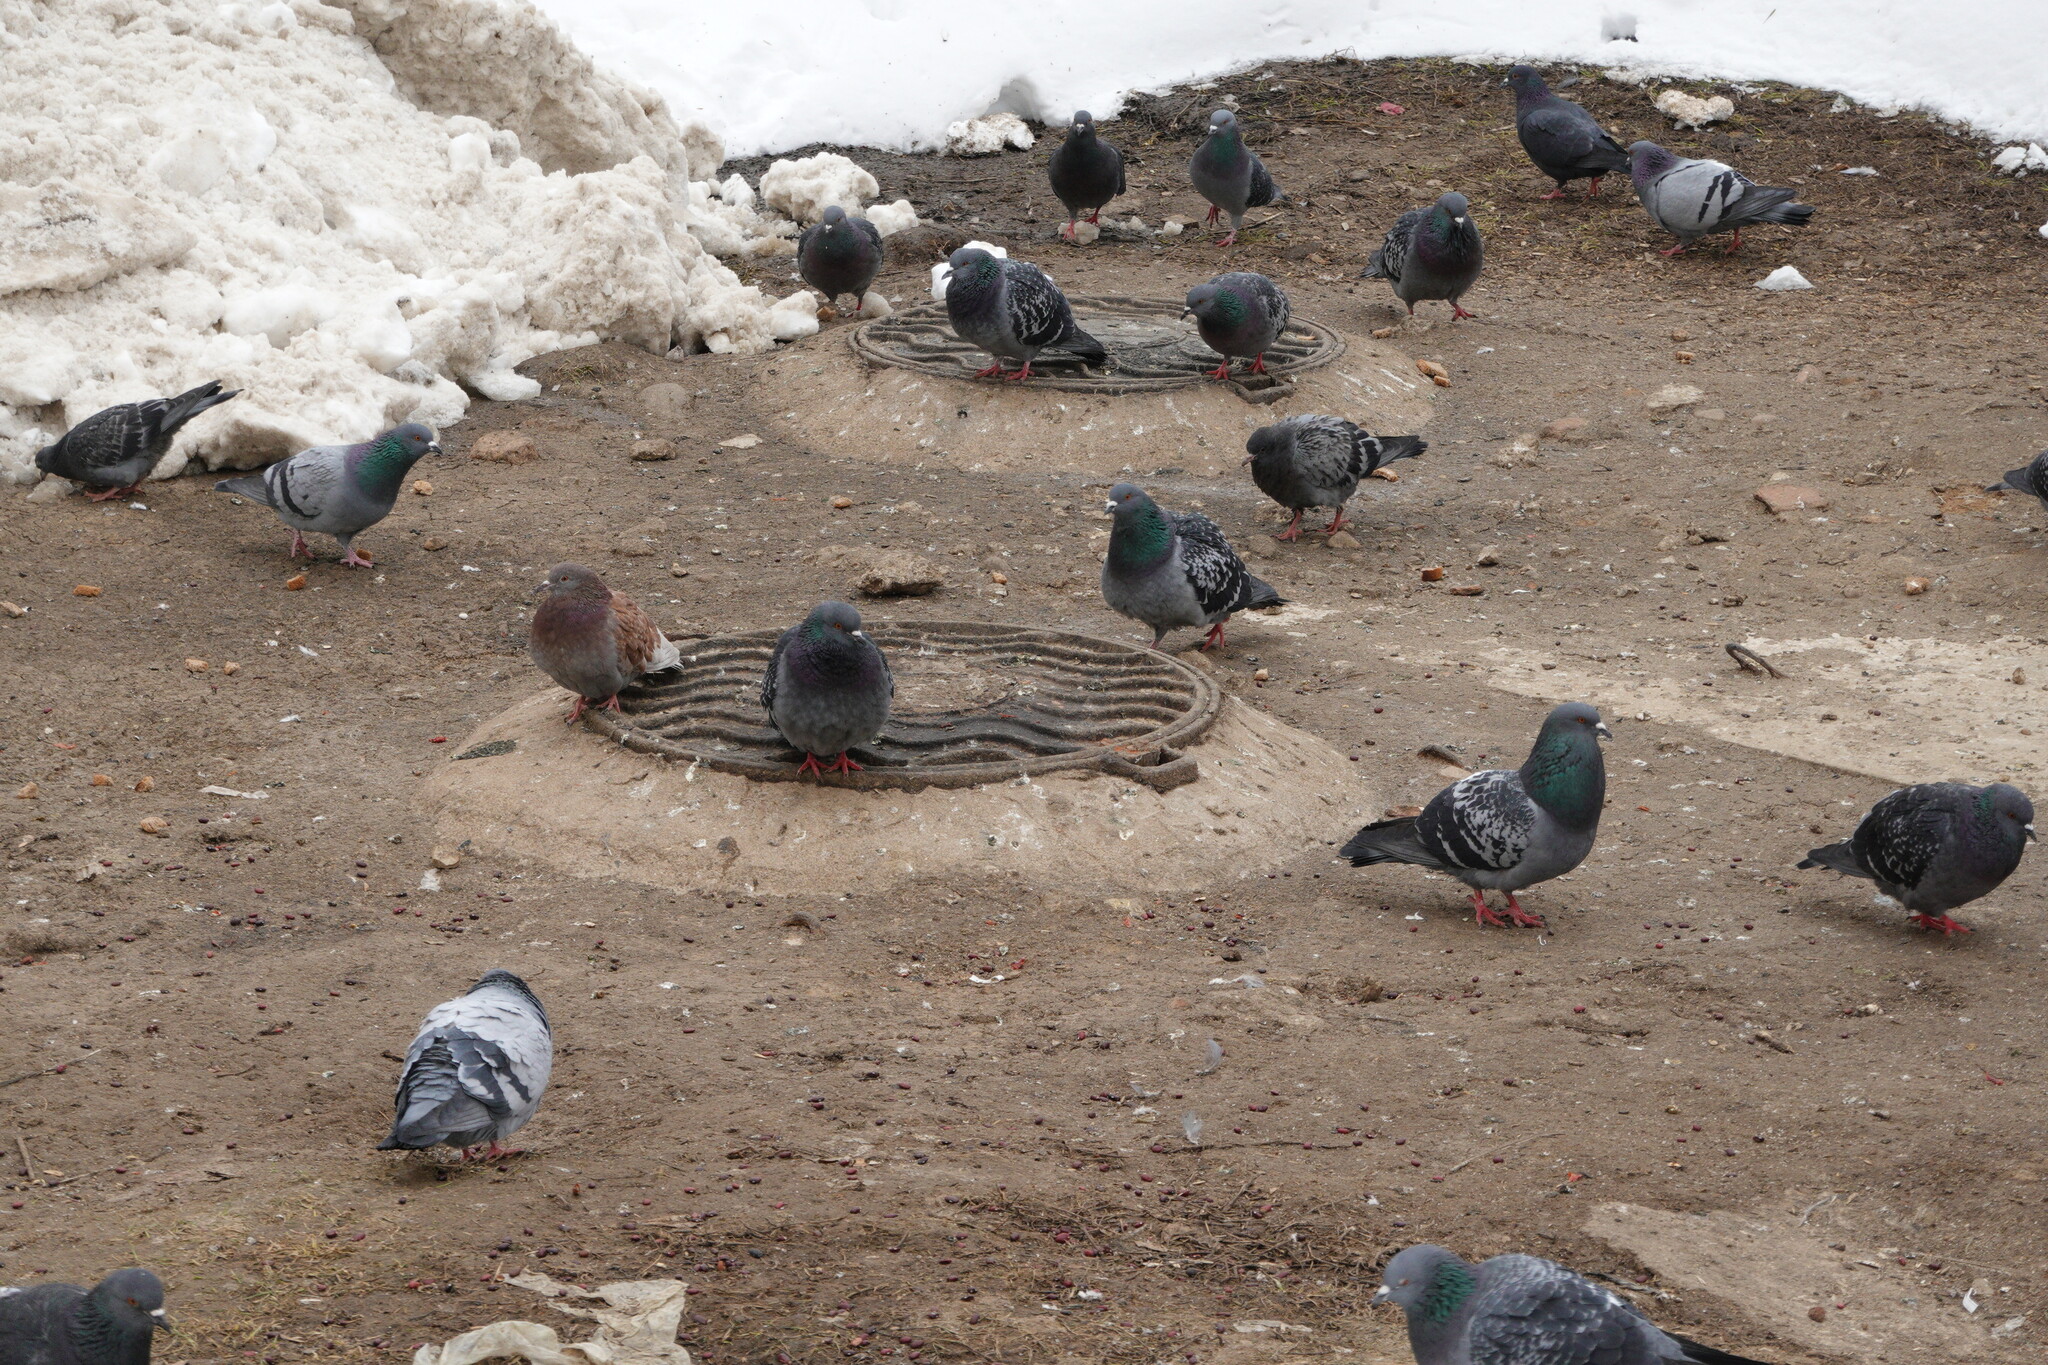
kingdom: Animalia
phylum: Chordata
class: Aves
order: Columbiformes
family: Columbidae
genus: Columba
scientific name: Columba livia
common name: Rock pigeon
